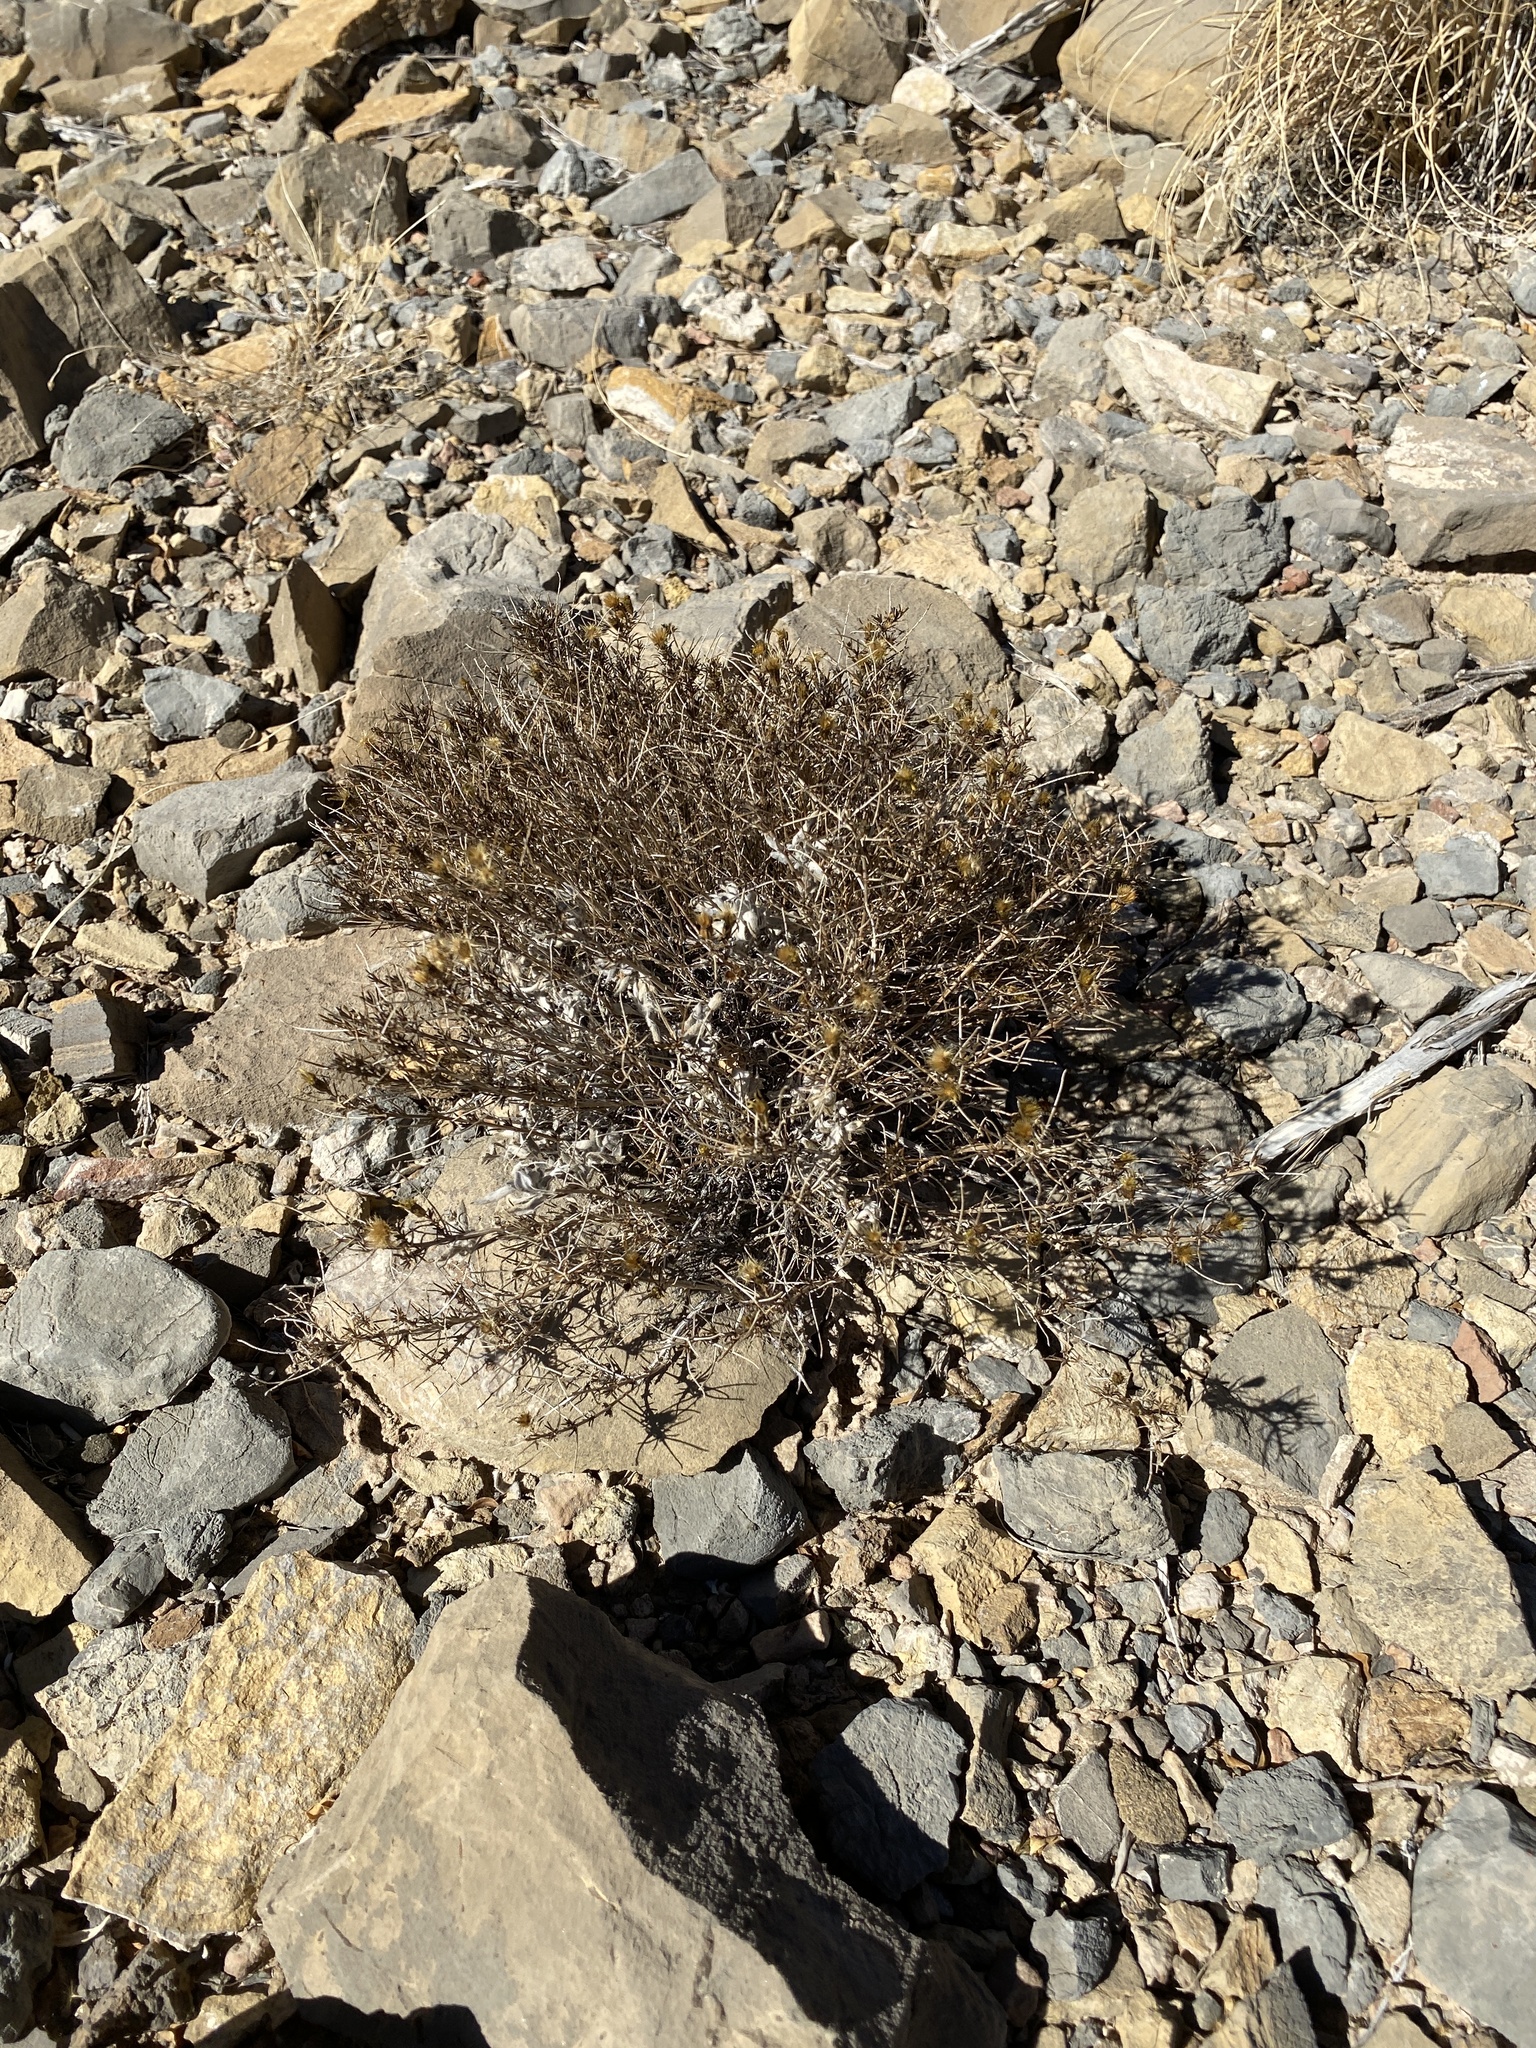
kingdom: Plantae
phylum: Tracheophyta
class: Magnoliopsida
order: Asterales
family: Asteraceae
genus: Thymophylla
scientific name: Thymophylla acerosa
